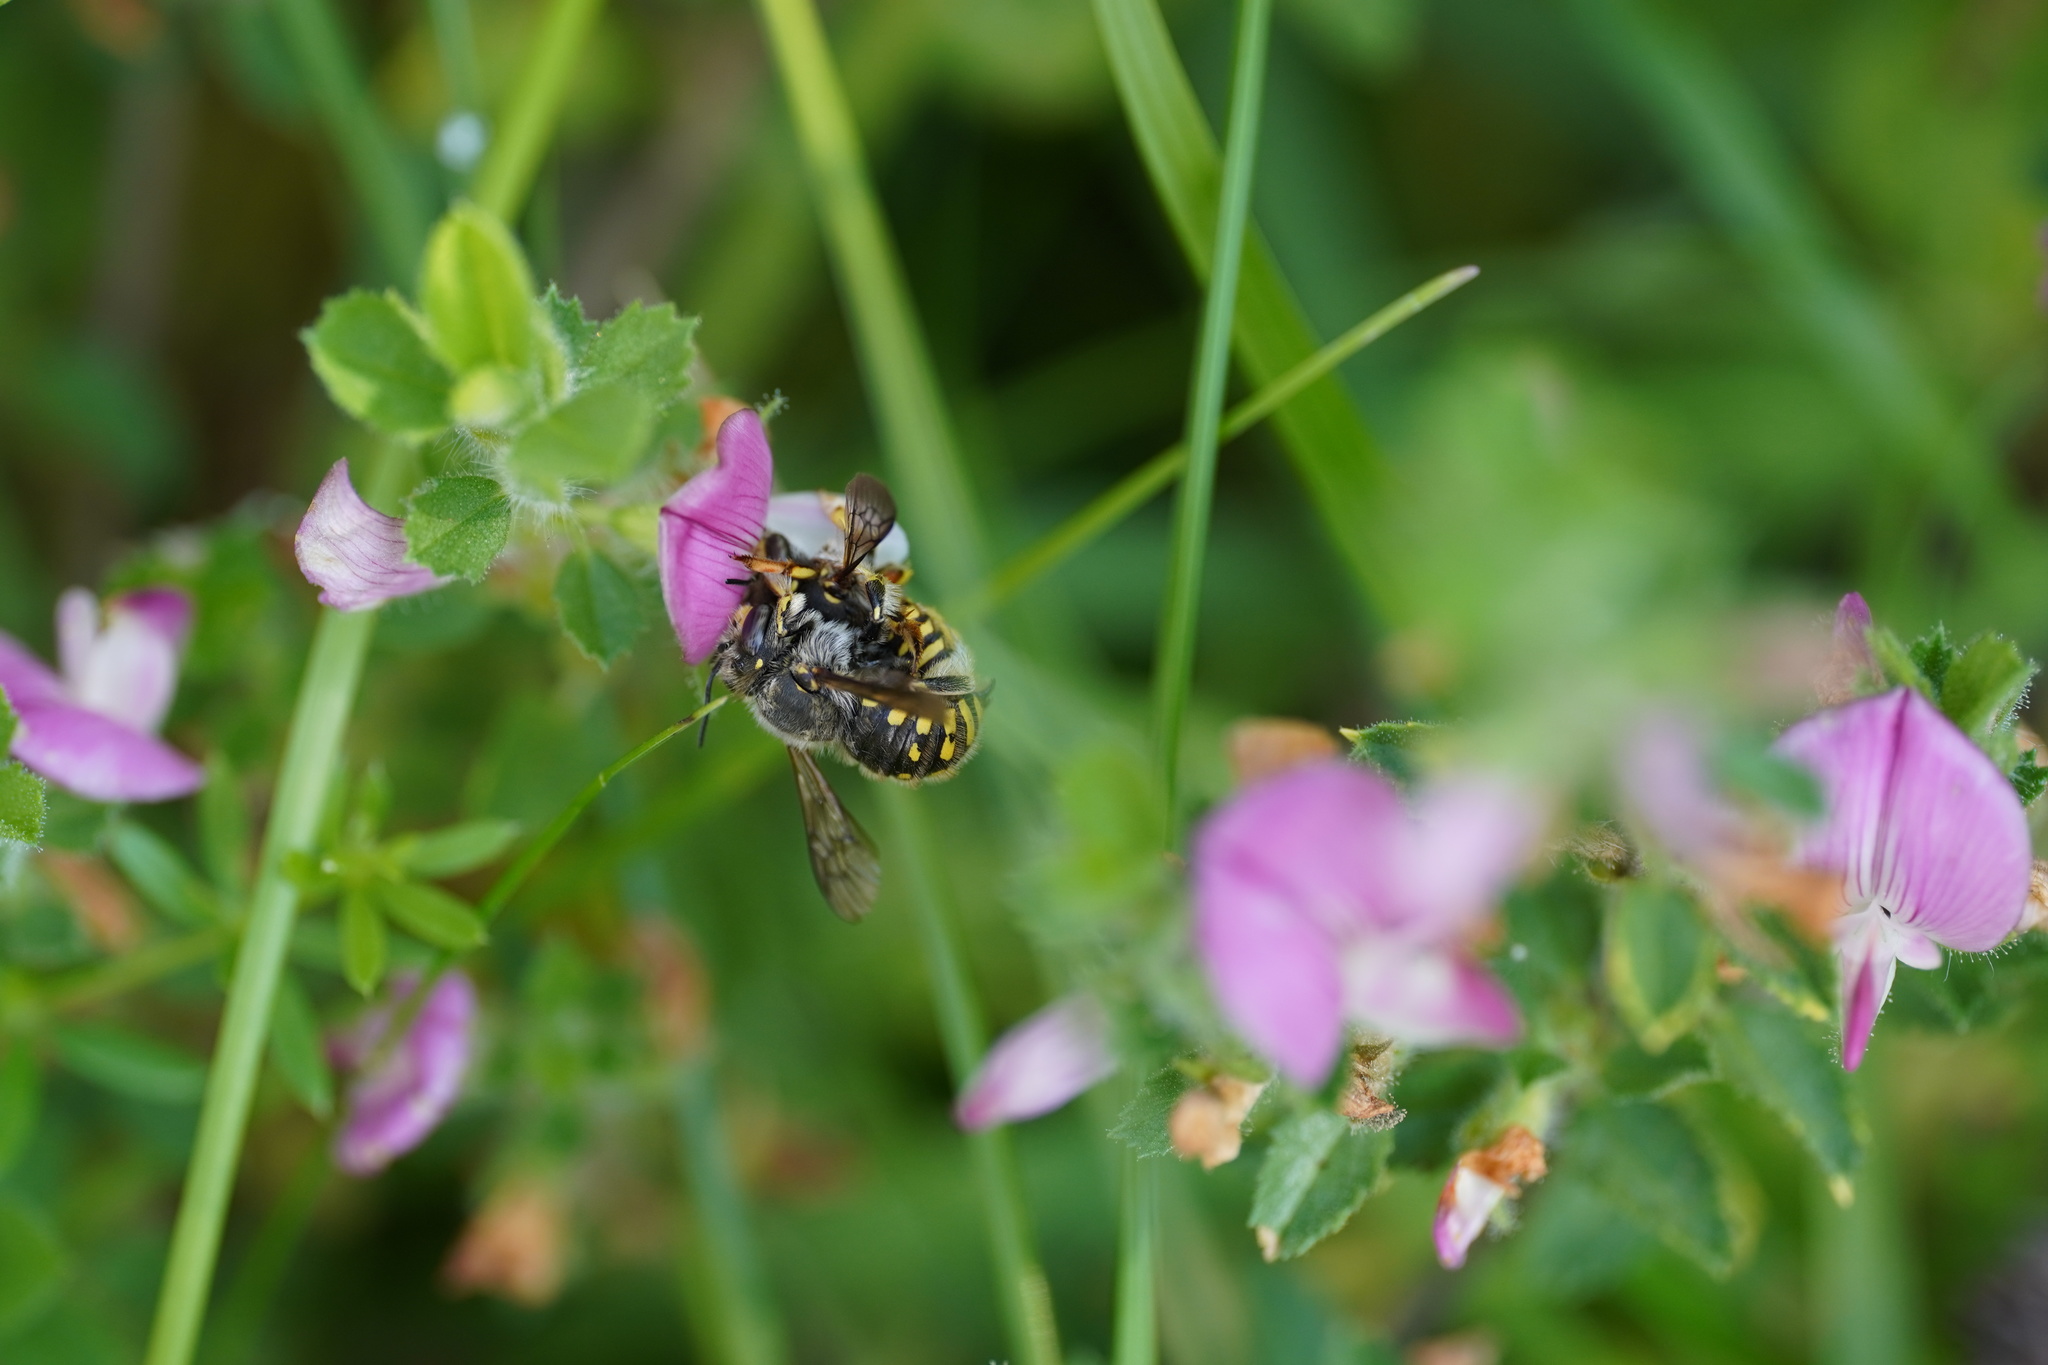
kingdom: Animalia
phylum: Arthropoda
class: Insecta
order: Hymenoptera
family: Megachilidae
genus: Anthidium
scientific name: Anthidium manicatum
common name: Wool carder bee
